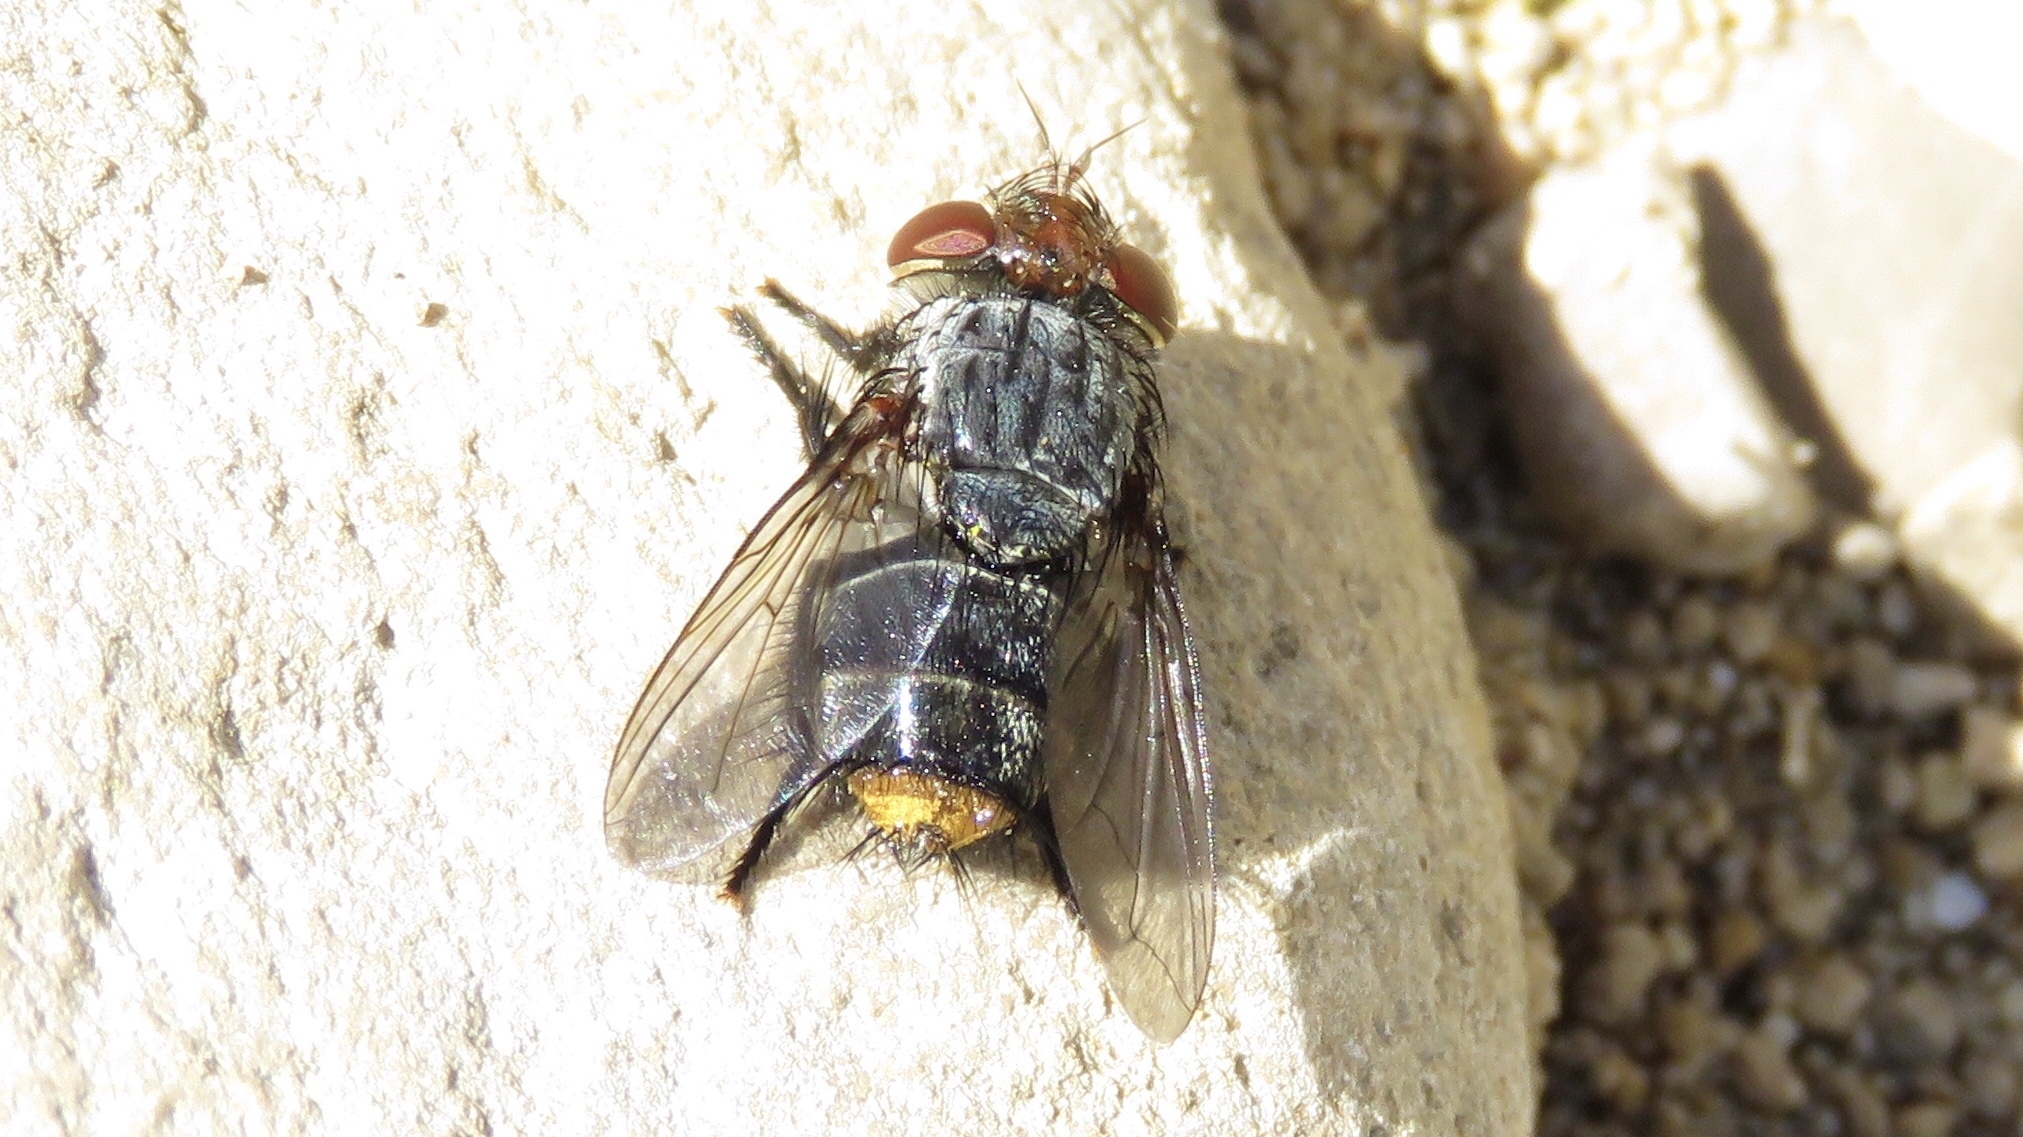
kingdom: Animalia
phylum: Arthropoda
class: Insecta
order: Diptera
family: Tachinidae
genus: Belvosia
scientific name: Belvosia unifasciata
